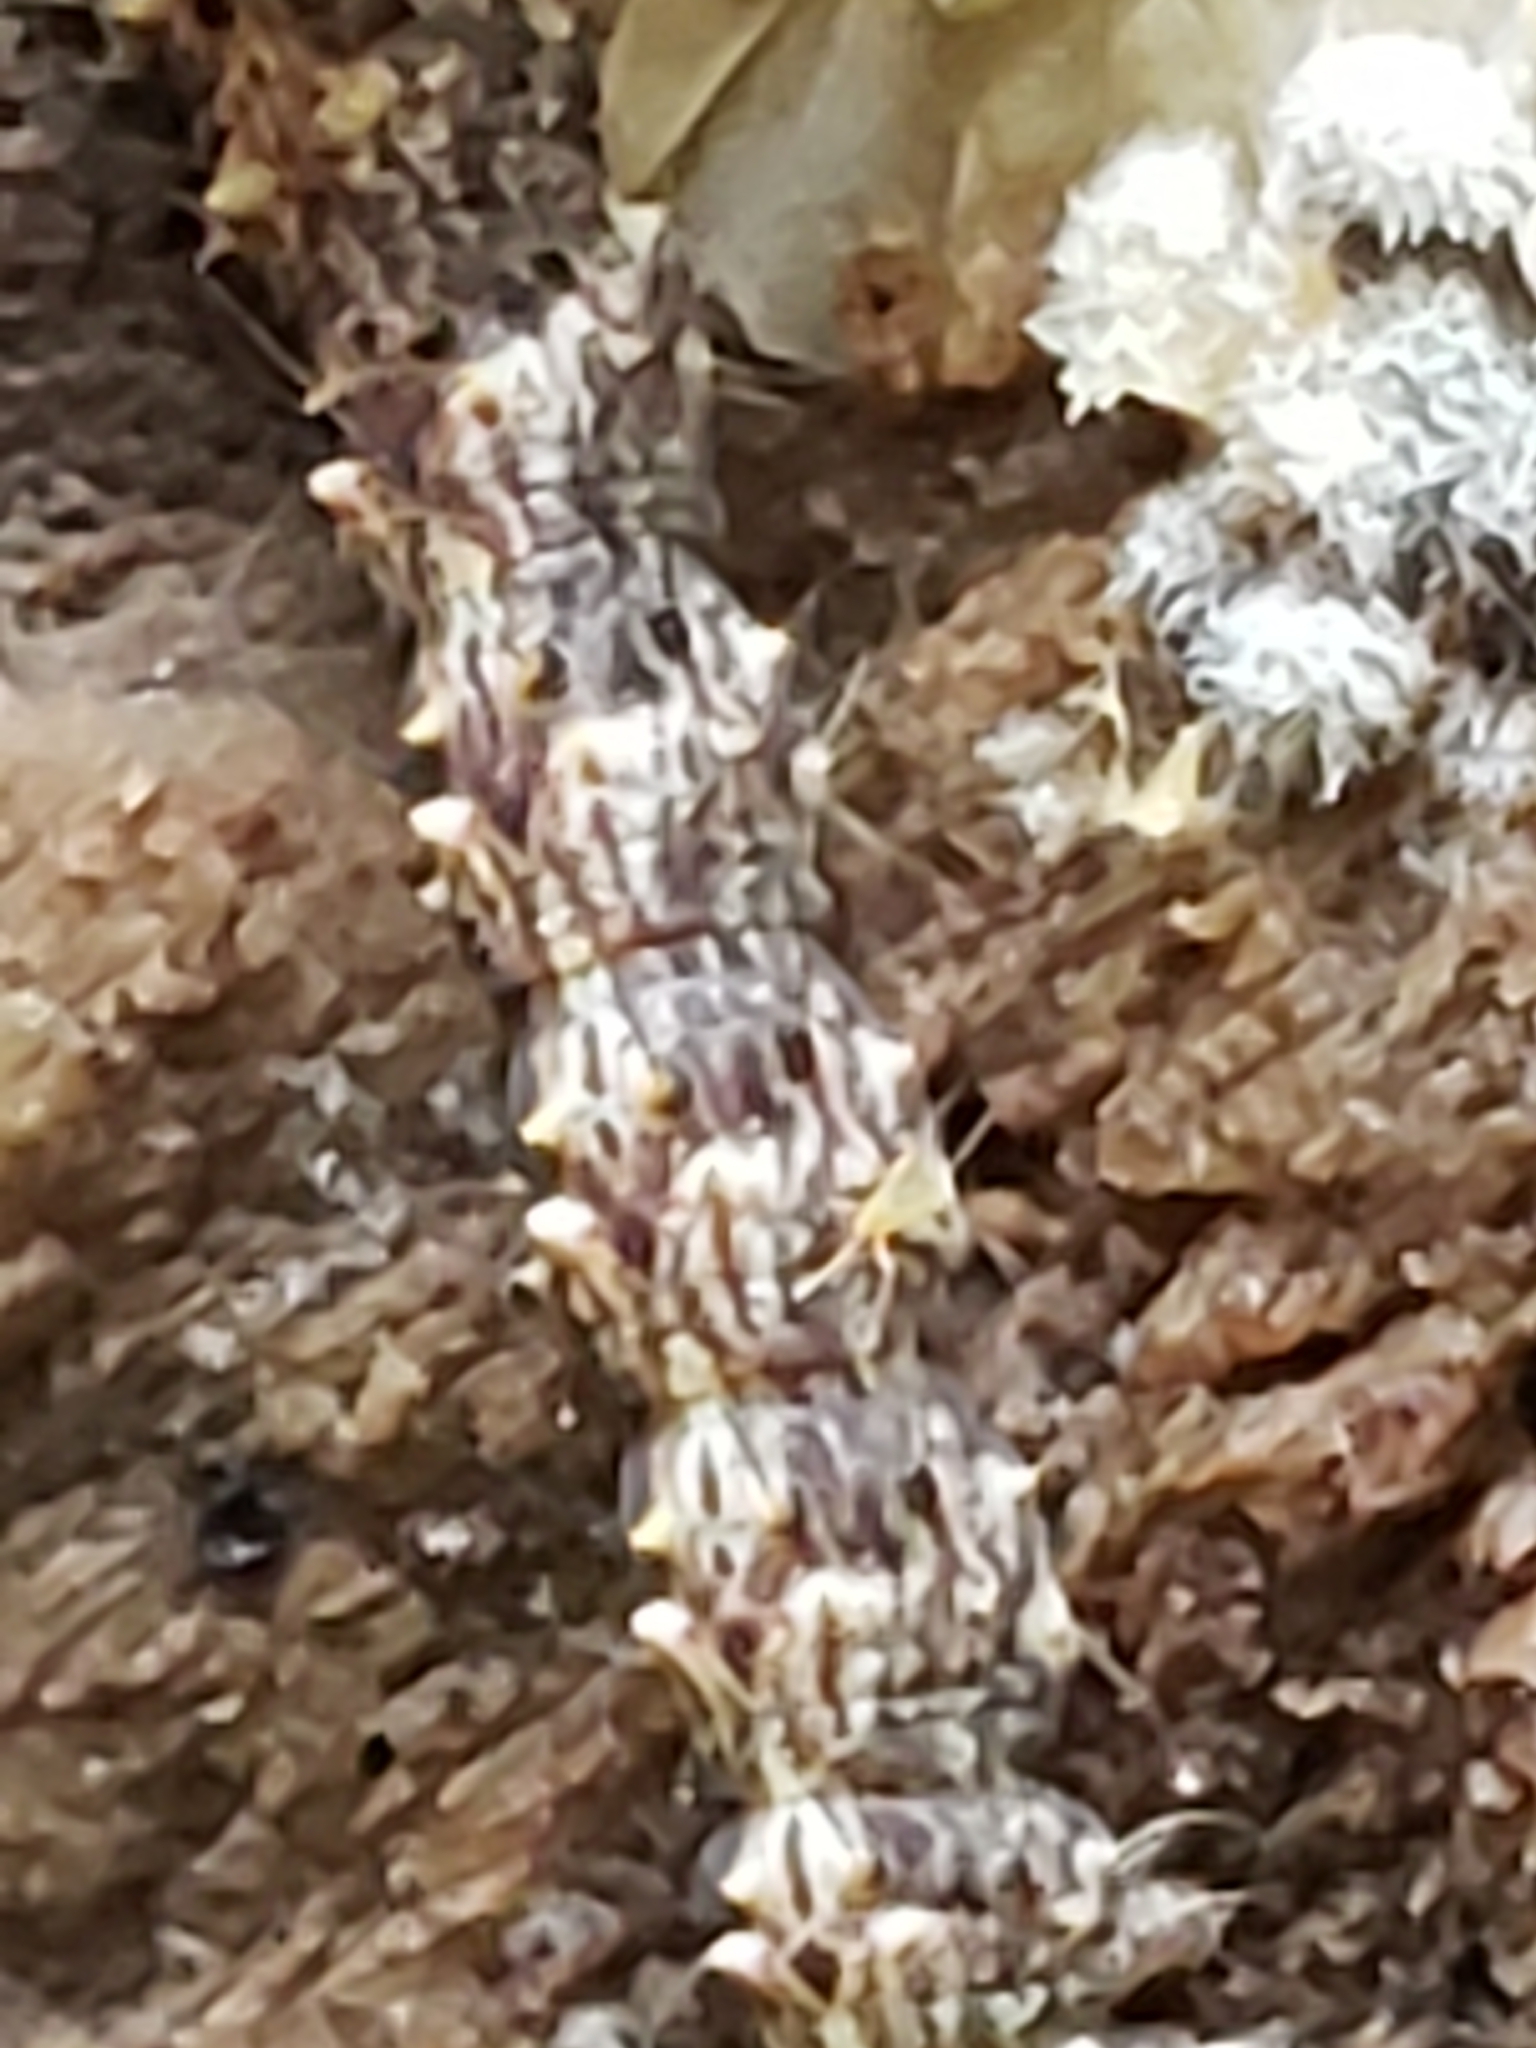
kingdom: Animalia
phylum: Arthropoda
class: Insecta
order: Lepidoptera
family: Erebidae
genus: Metalectra
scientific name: Metalectra discalis
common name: Common fungus moth
